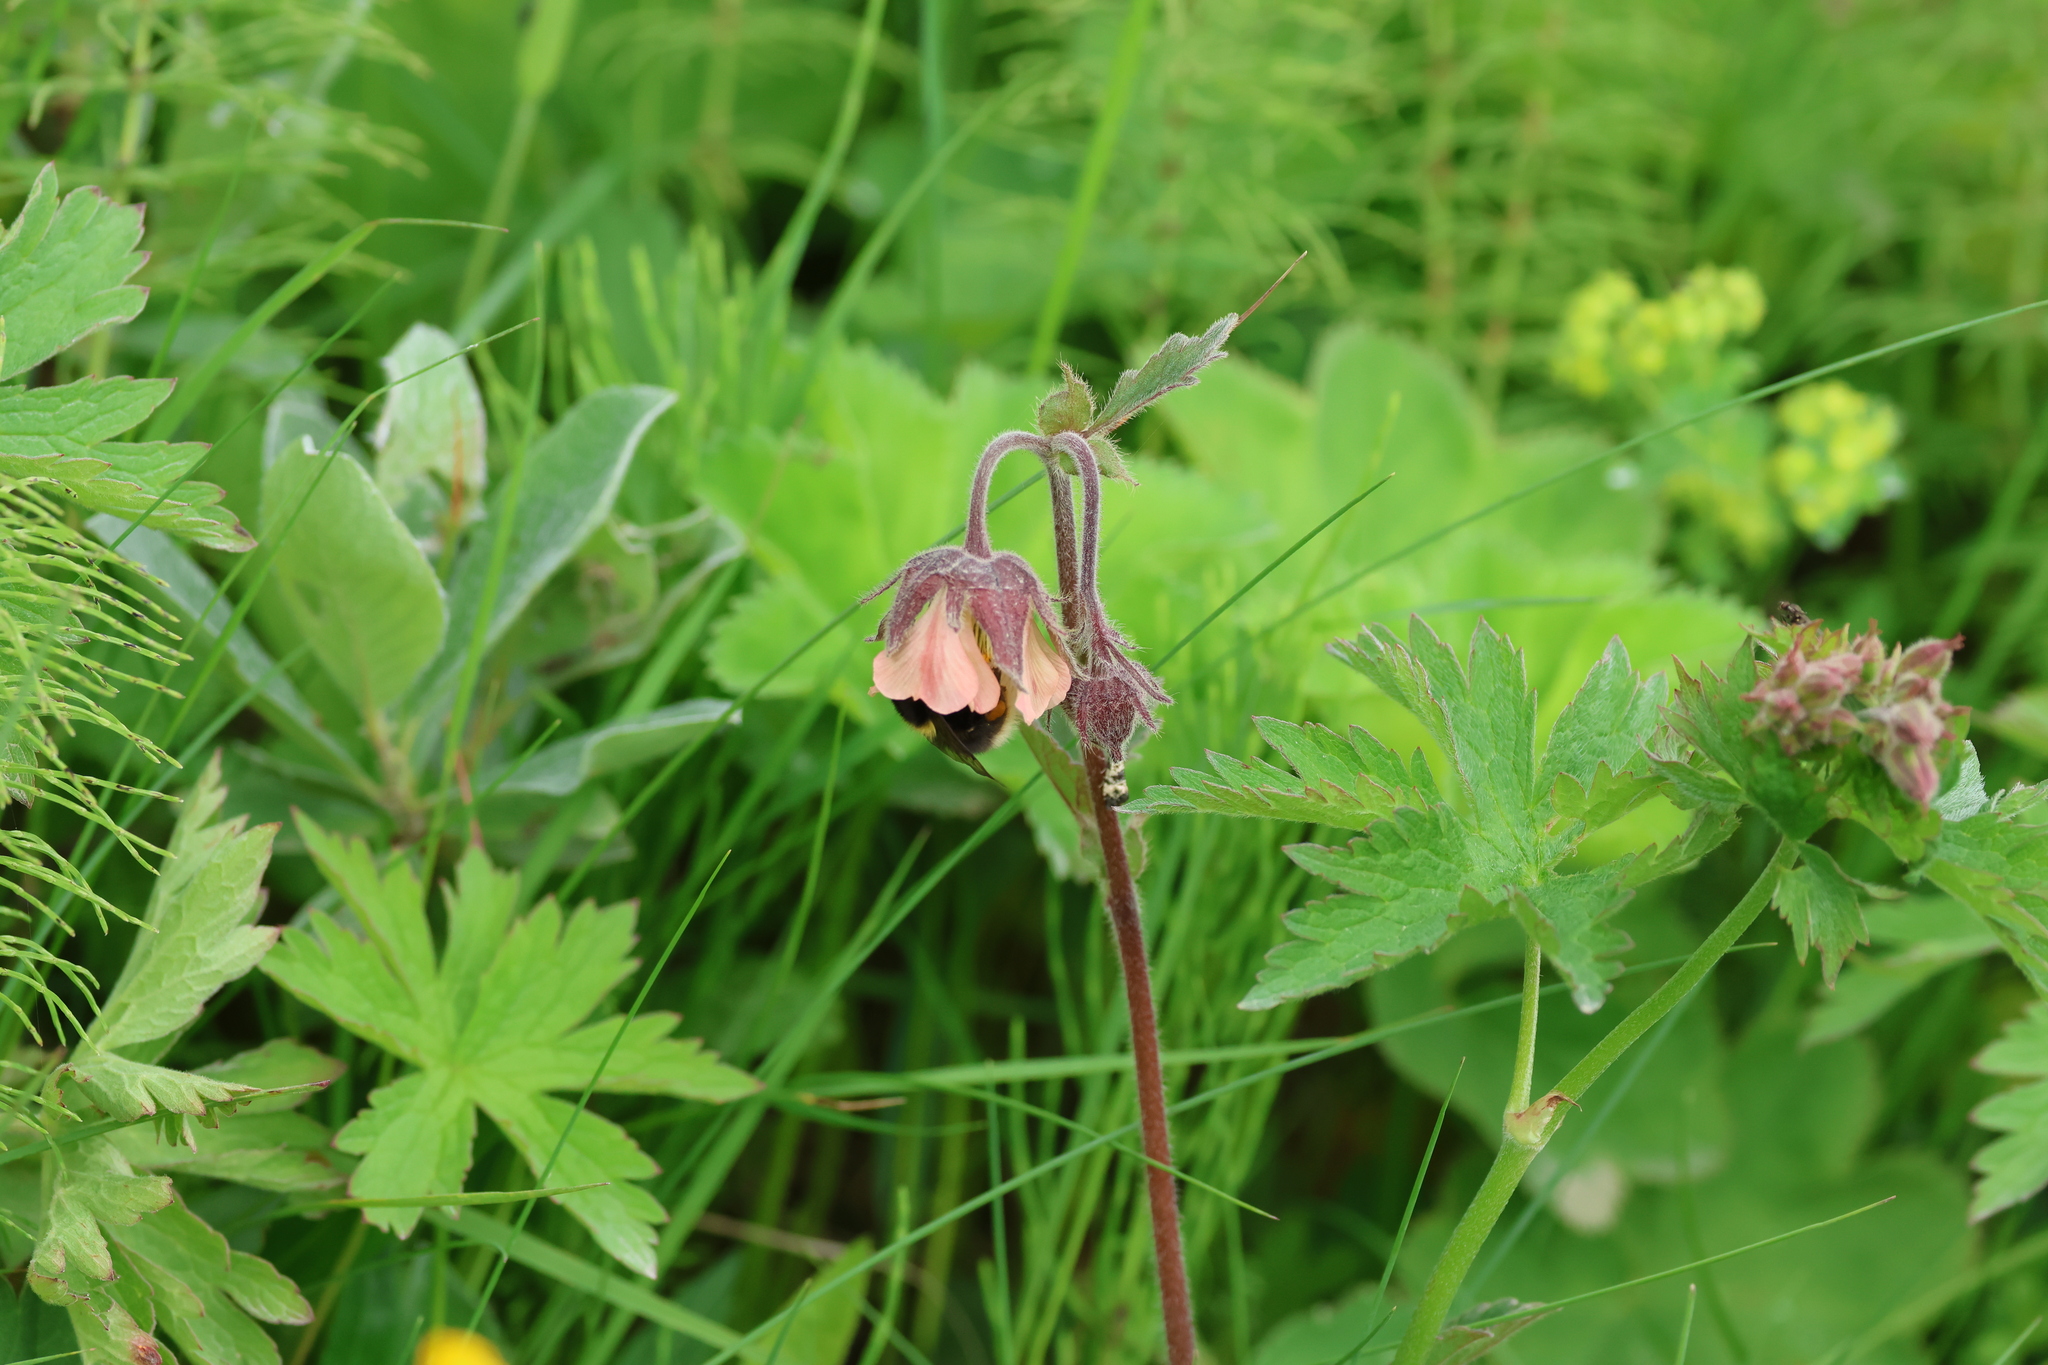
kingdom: Plantae
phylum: Tracheophyta
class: Magnoliopsida
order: Rosales
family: Rosaceae
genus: Geum
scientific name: Geum rivale
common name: Water avens
